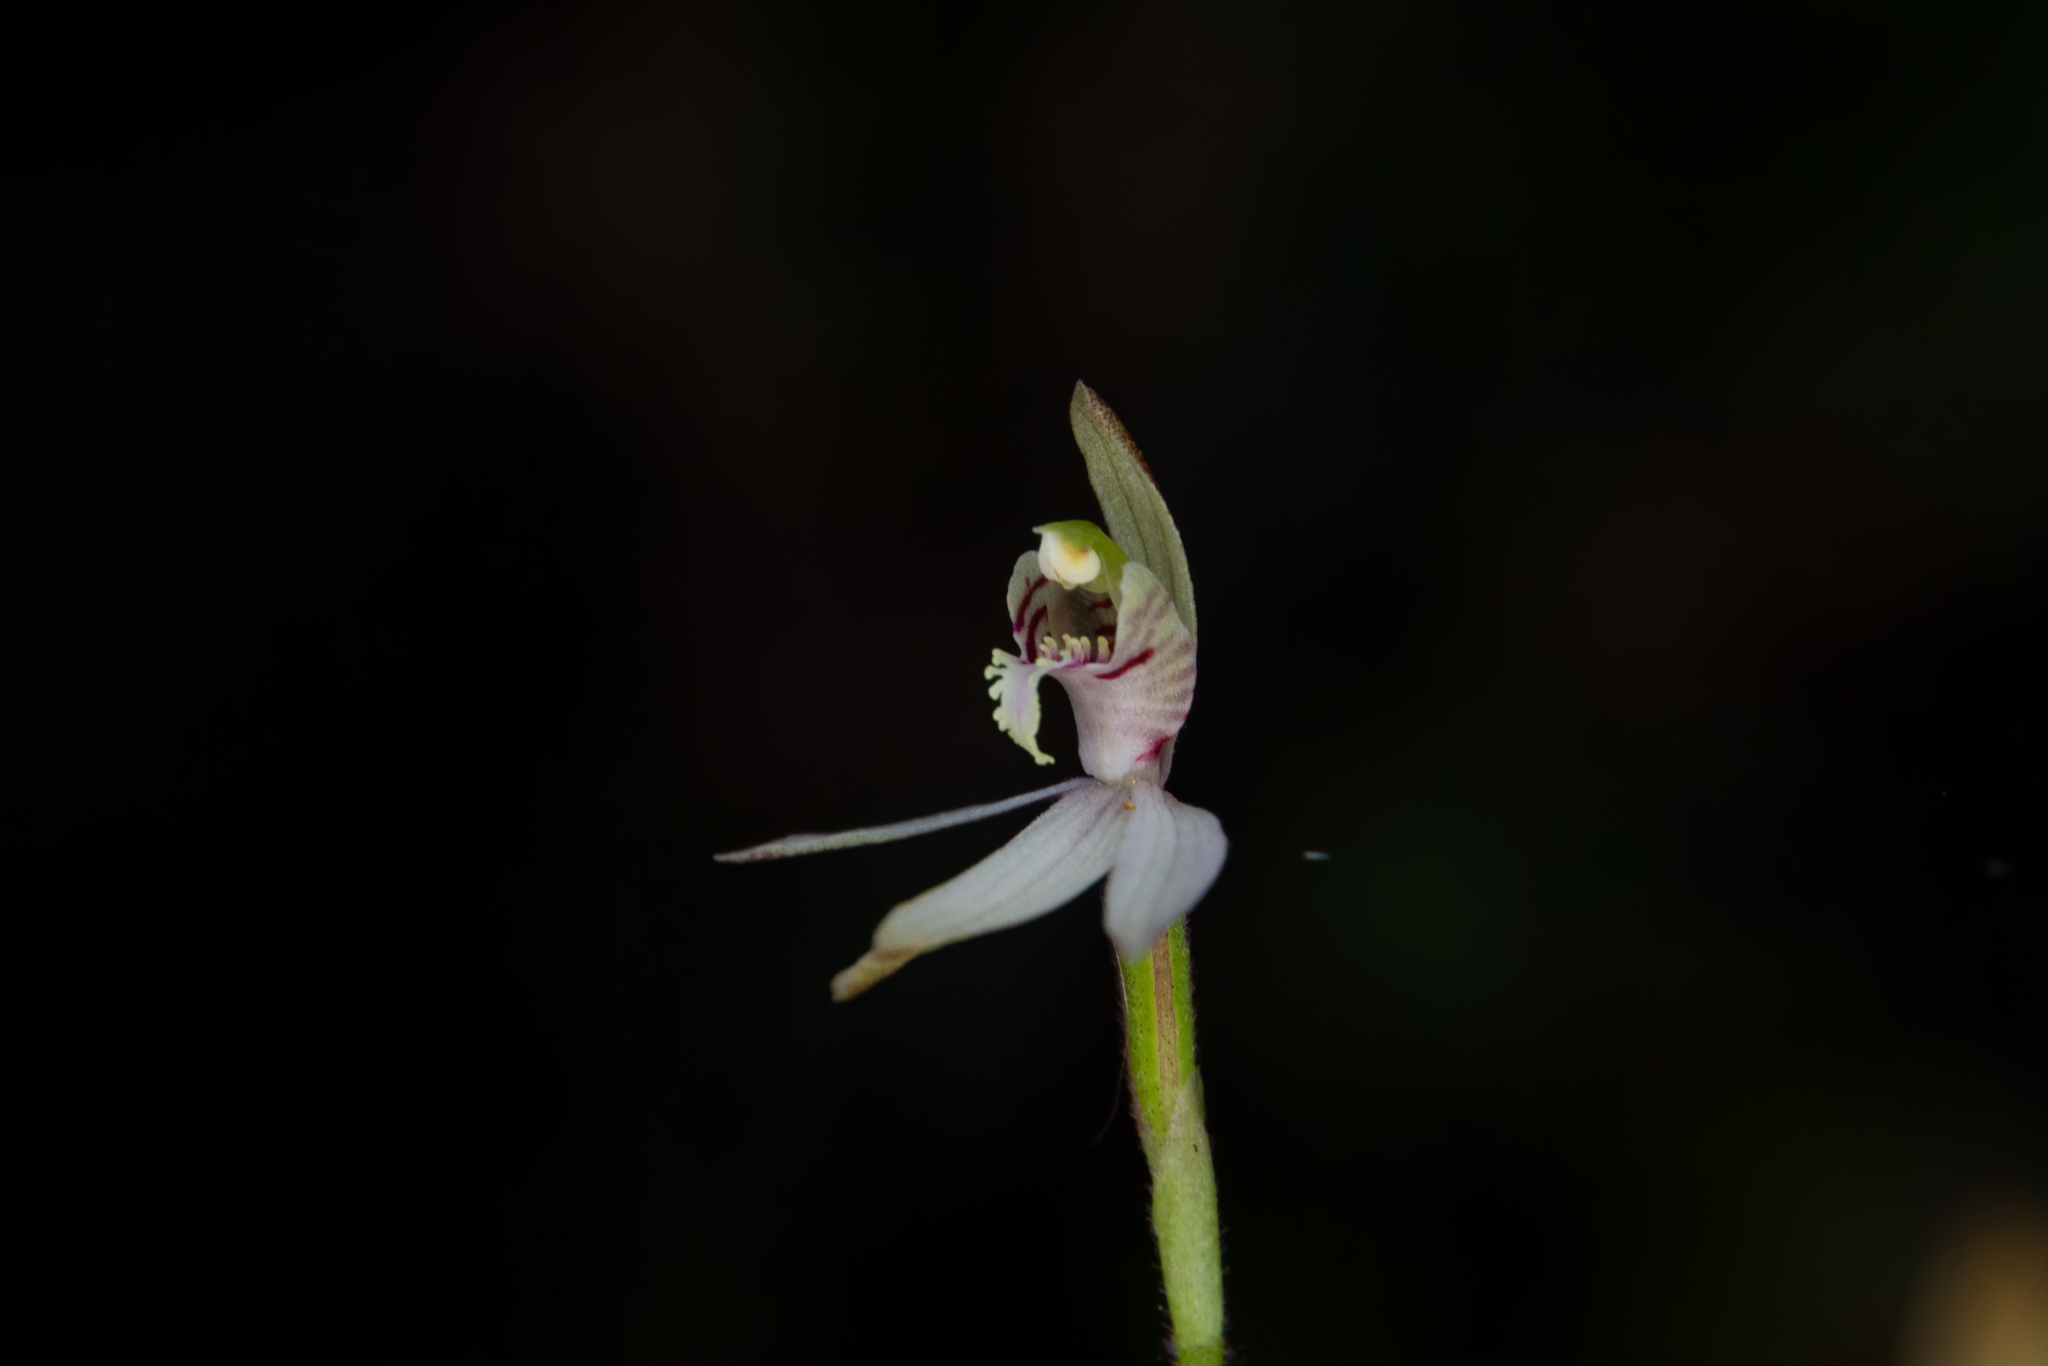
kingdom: Plantae
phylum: Tracheophyta
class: Liliopsida
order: Asparagales
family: Orchidaceae
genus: Caladenia
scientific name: Caladenia chlorostyla
